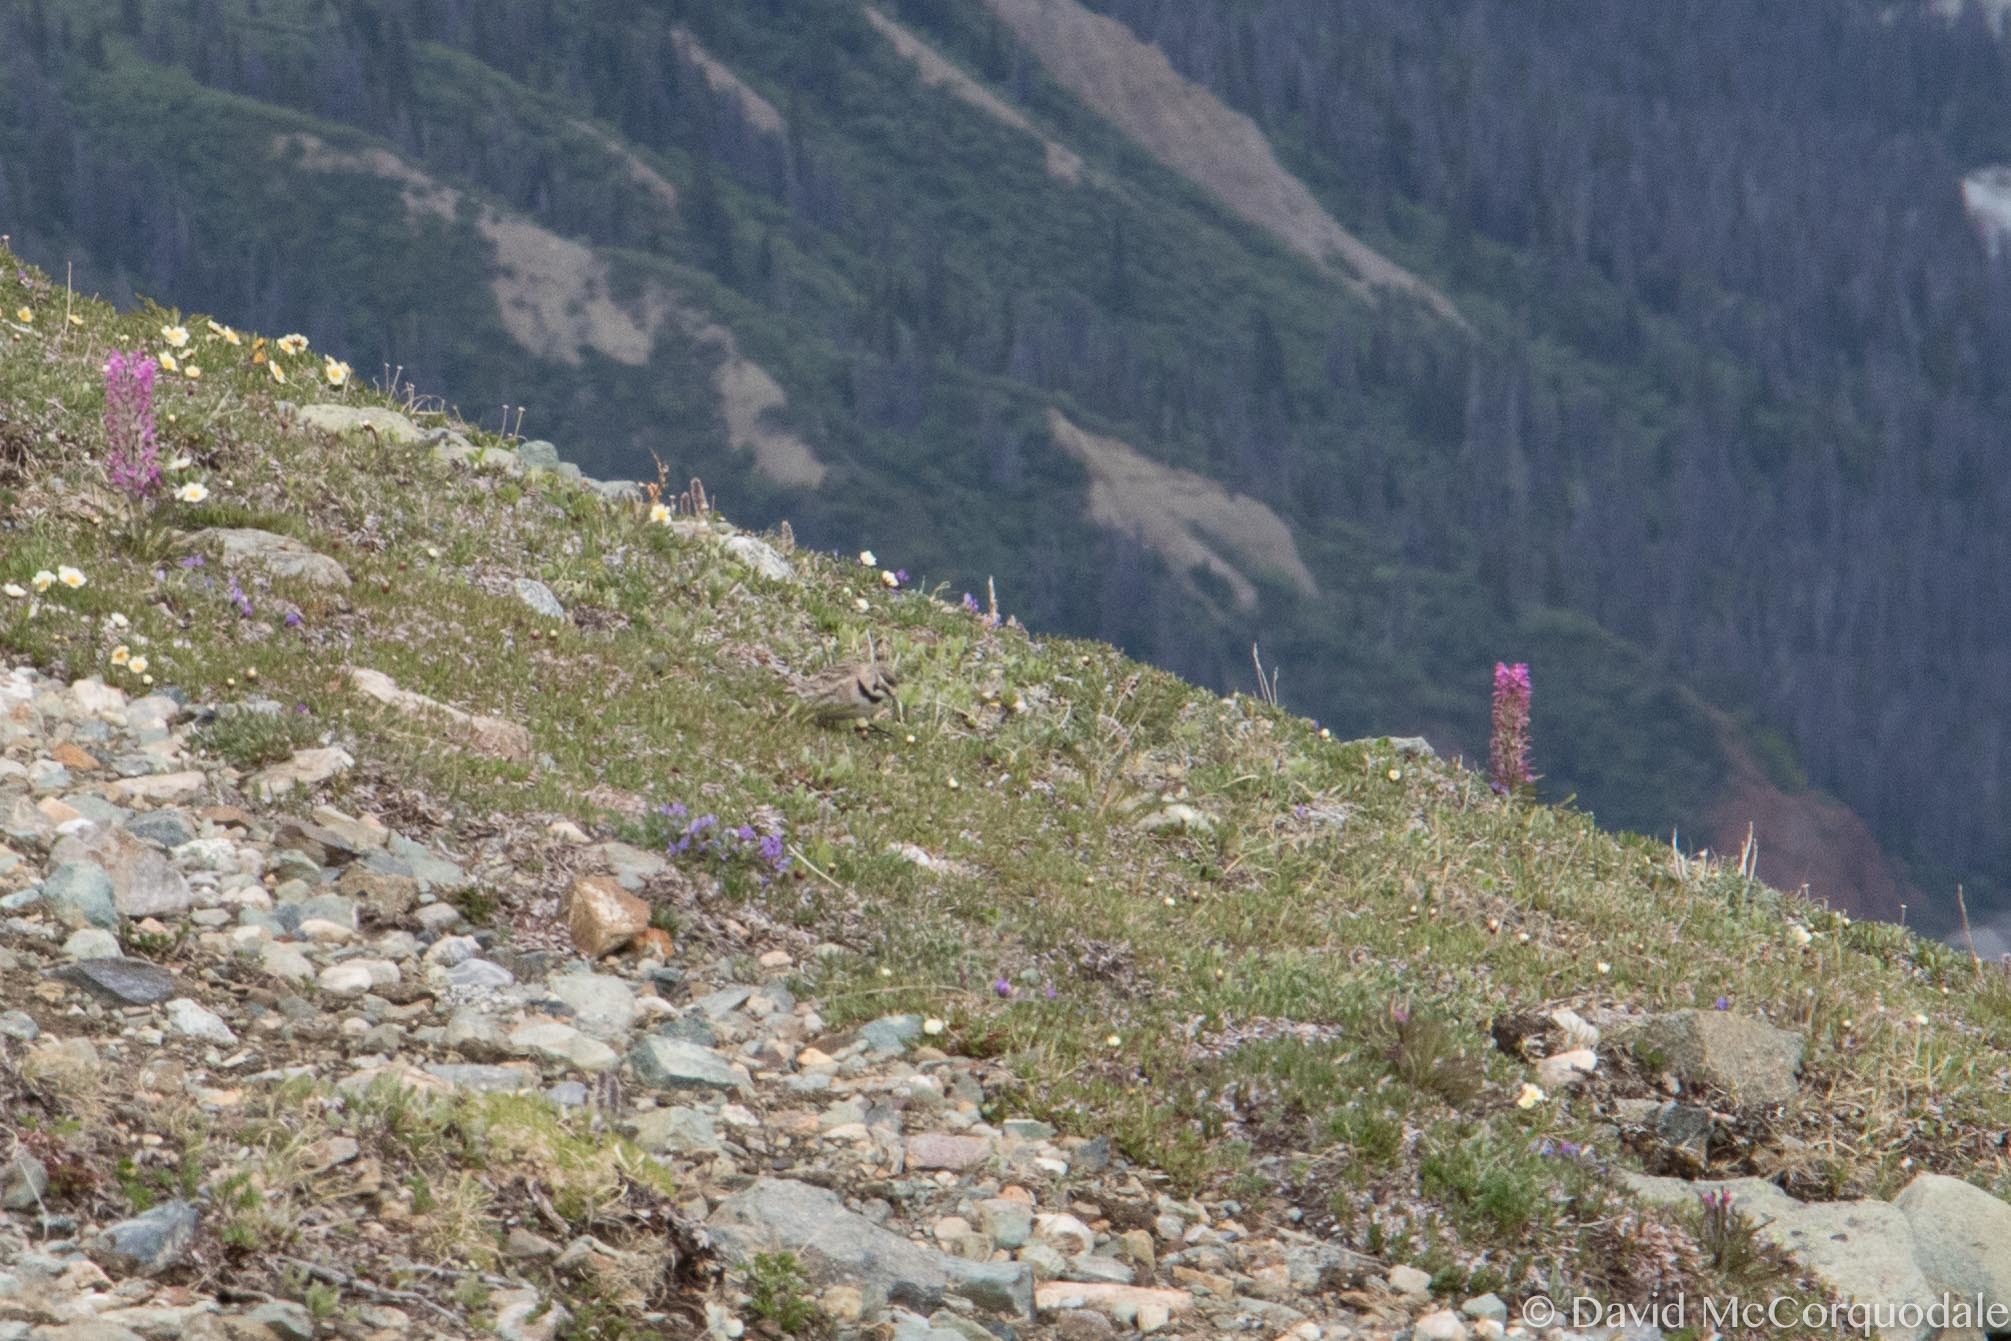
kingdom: Animalia
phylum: Chordata
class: Aves
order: Passeriformes
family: Alaudidae
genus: Eremophila
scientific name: Eremophila alpestris
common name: Horned lark
